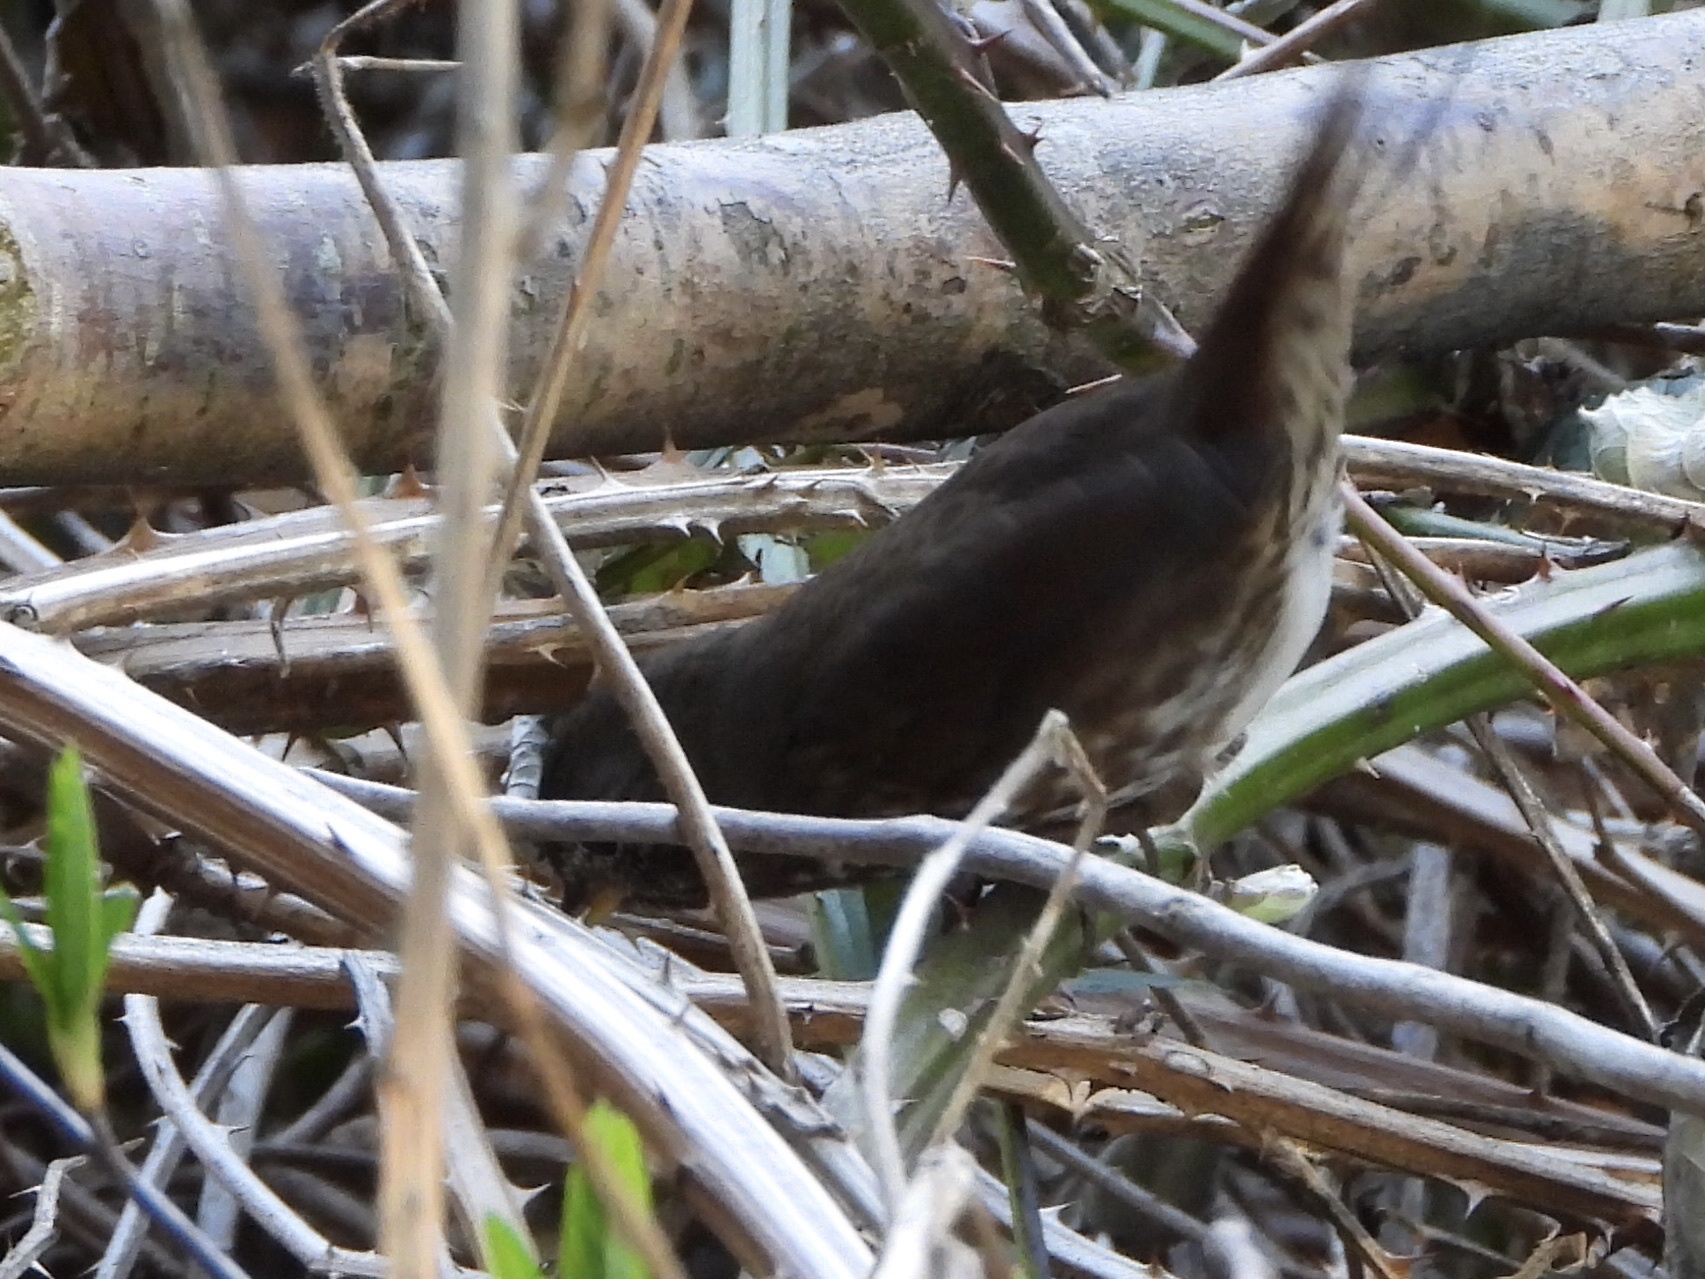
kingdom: Animalia
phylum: Chordata
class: Aves
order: Passeriformes
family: Passerellidae
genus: Passerella
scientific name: Passerella iliaca
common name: Fox sparrow
